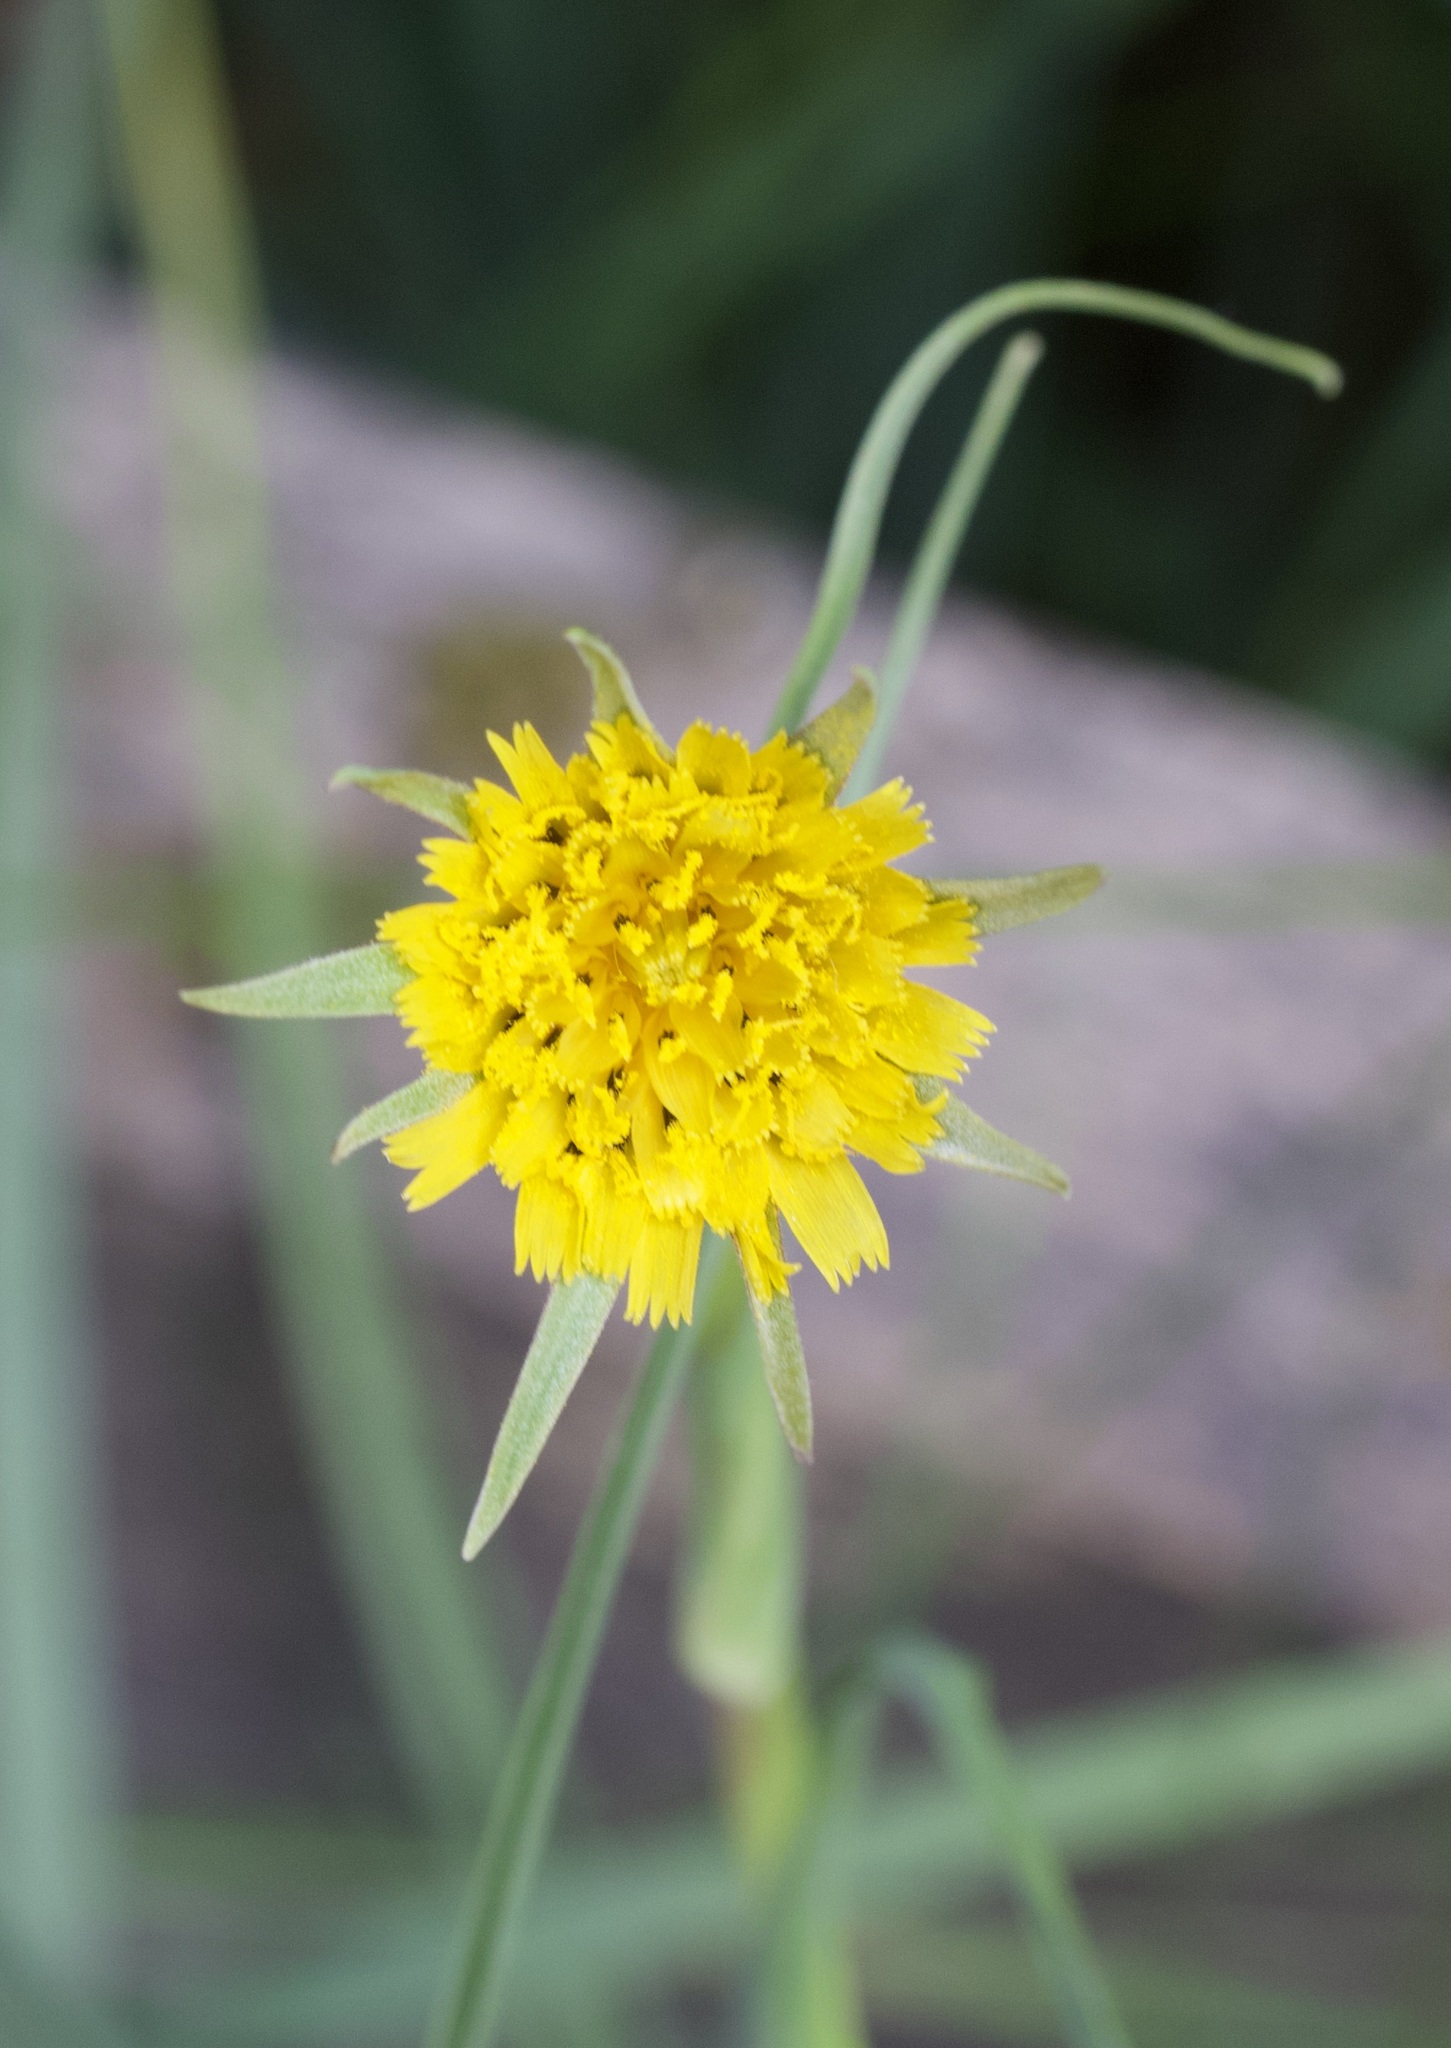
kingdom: Plantae
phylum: Tracheophyta
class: Magnoliopsida
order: Asterales
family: Asteraceae
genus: Tragopogon
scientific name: Tragopogon minor
